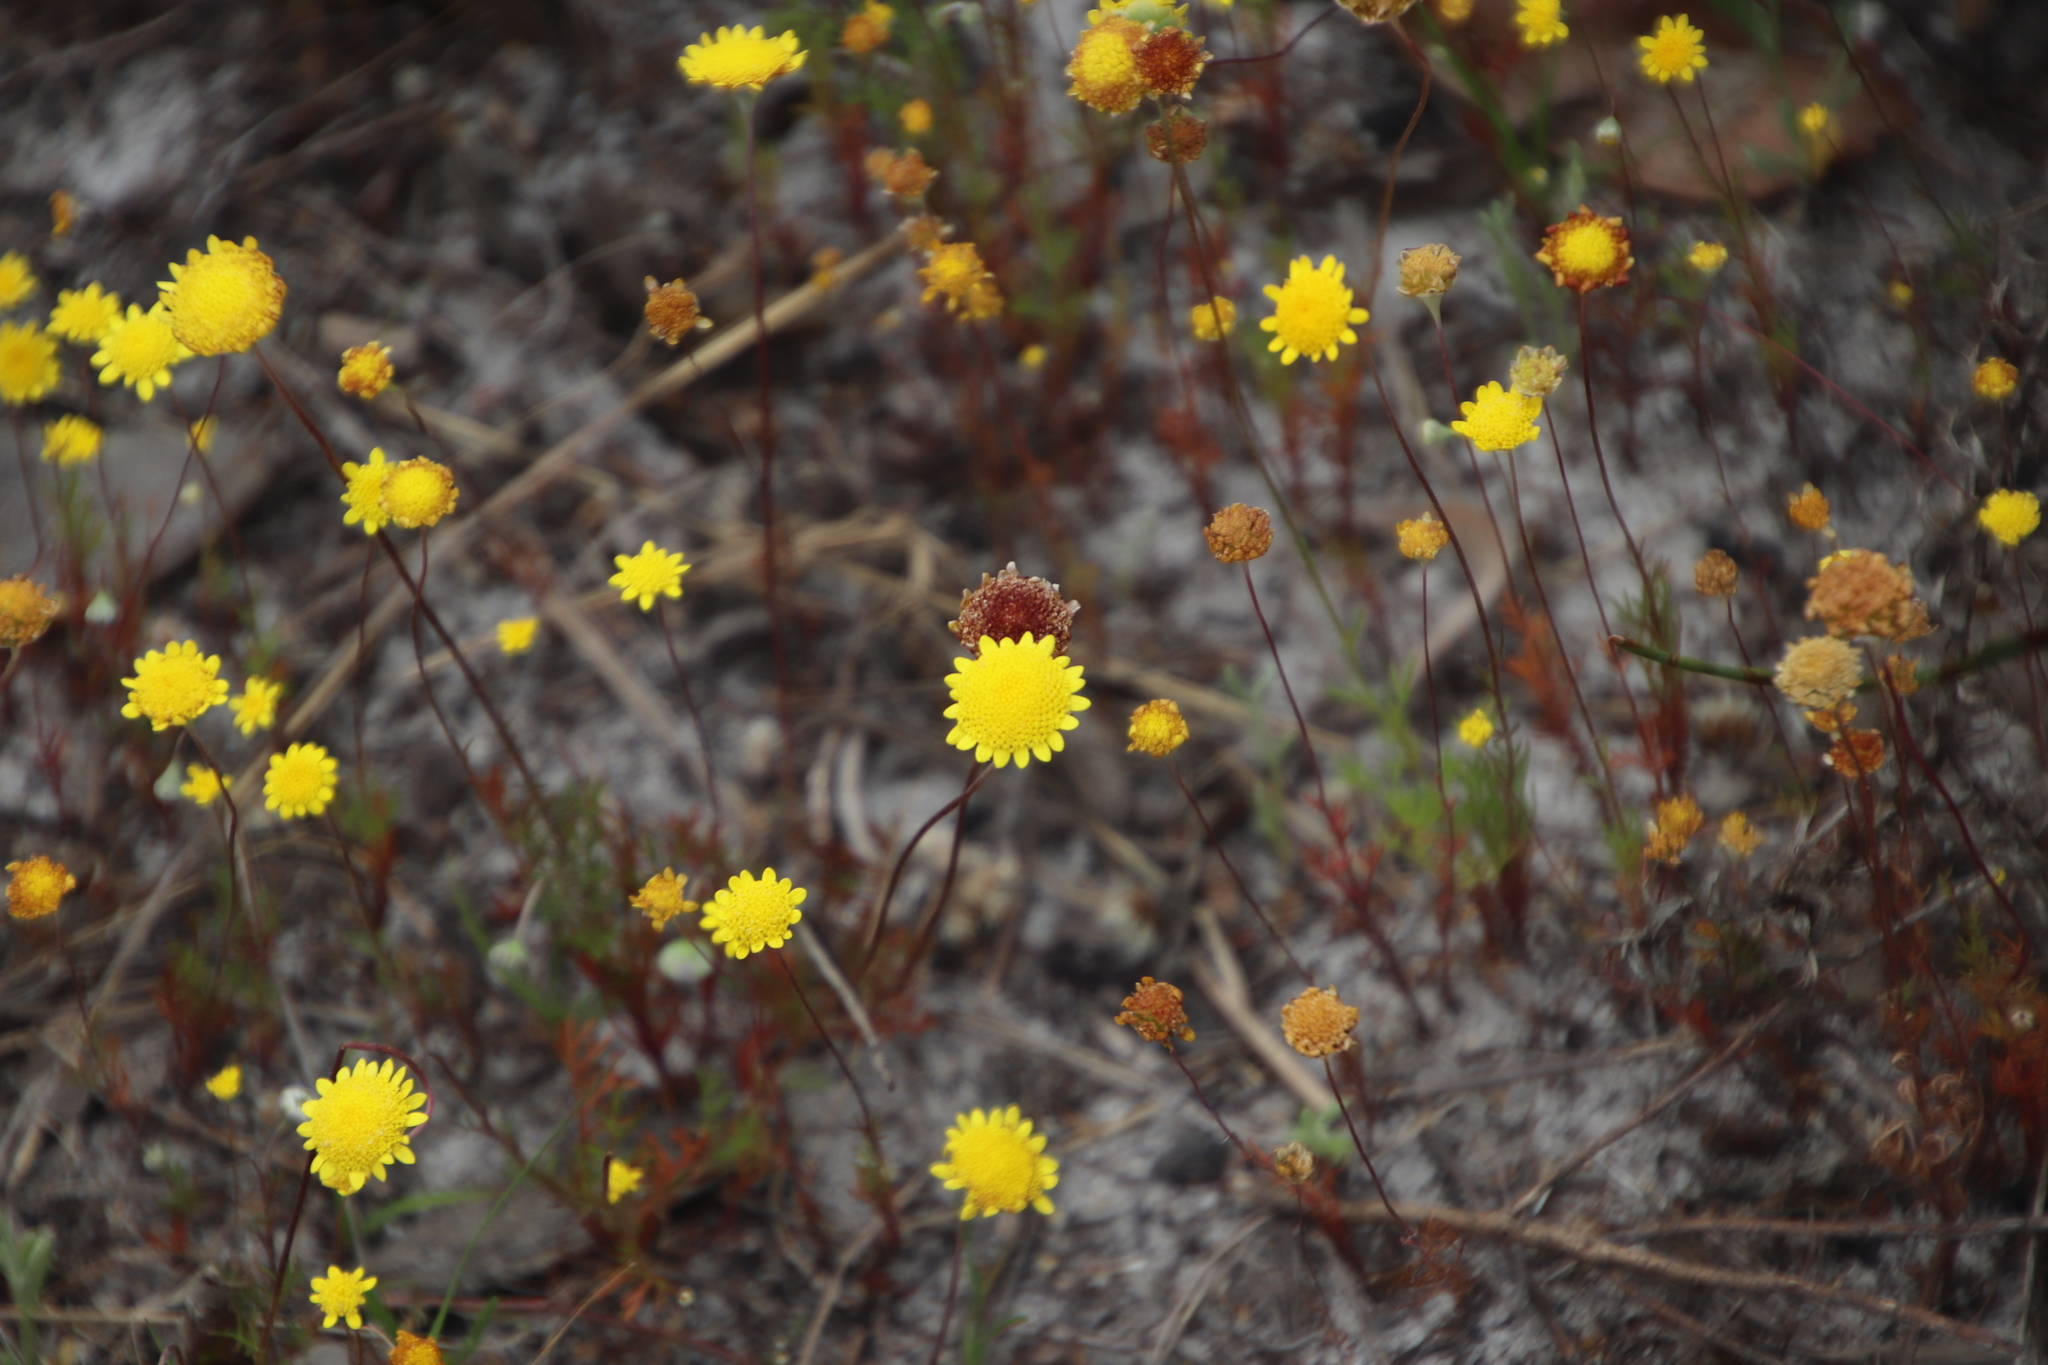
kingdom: Plantae
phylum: Tracheophyta
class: Magnoliopsida
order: Asterales
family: Asteraceae
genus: Cotula
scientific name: Cotula pruinosa
